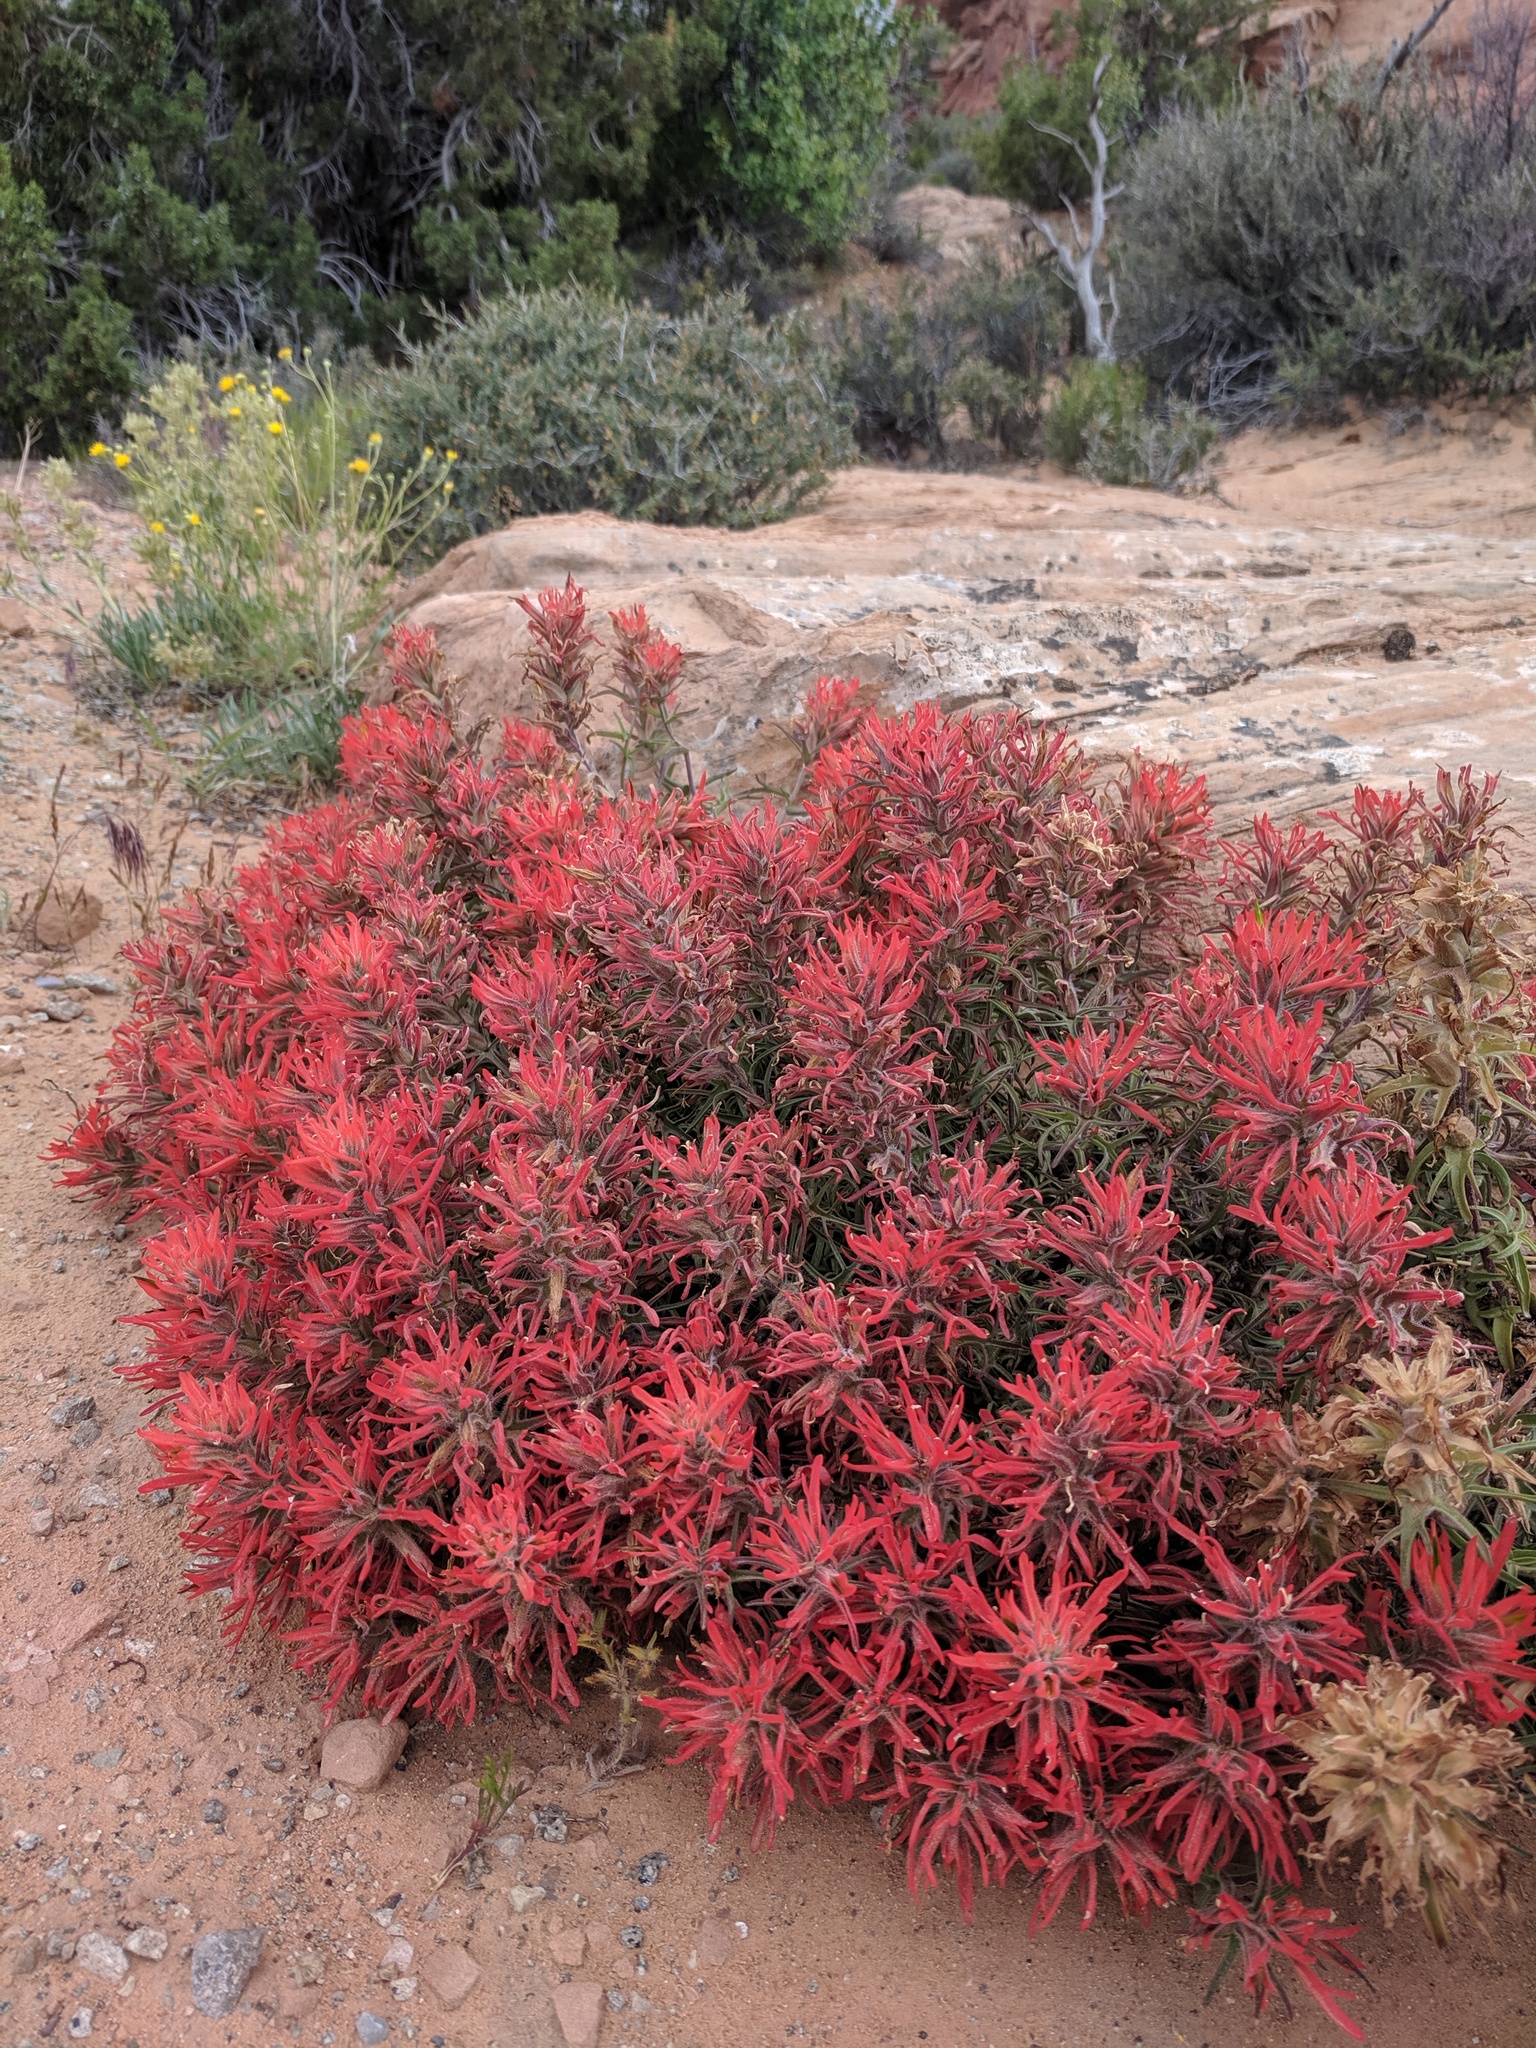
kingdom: Plantae
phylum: Tracheophyta
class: Magnoliopsida
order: Lamiales
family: Orobanchaceae
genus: Castilleja
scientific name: Castilleja scabrida
